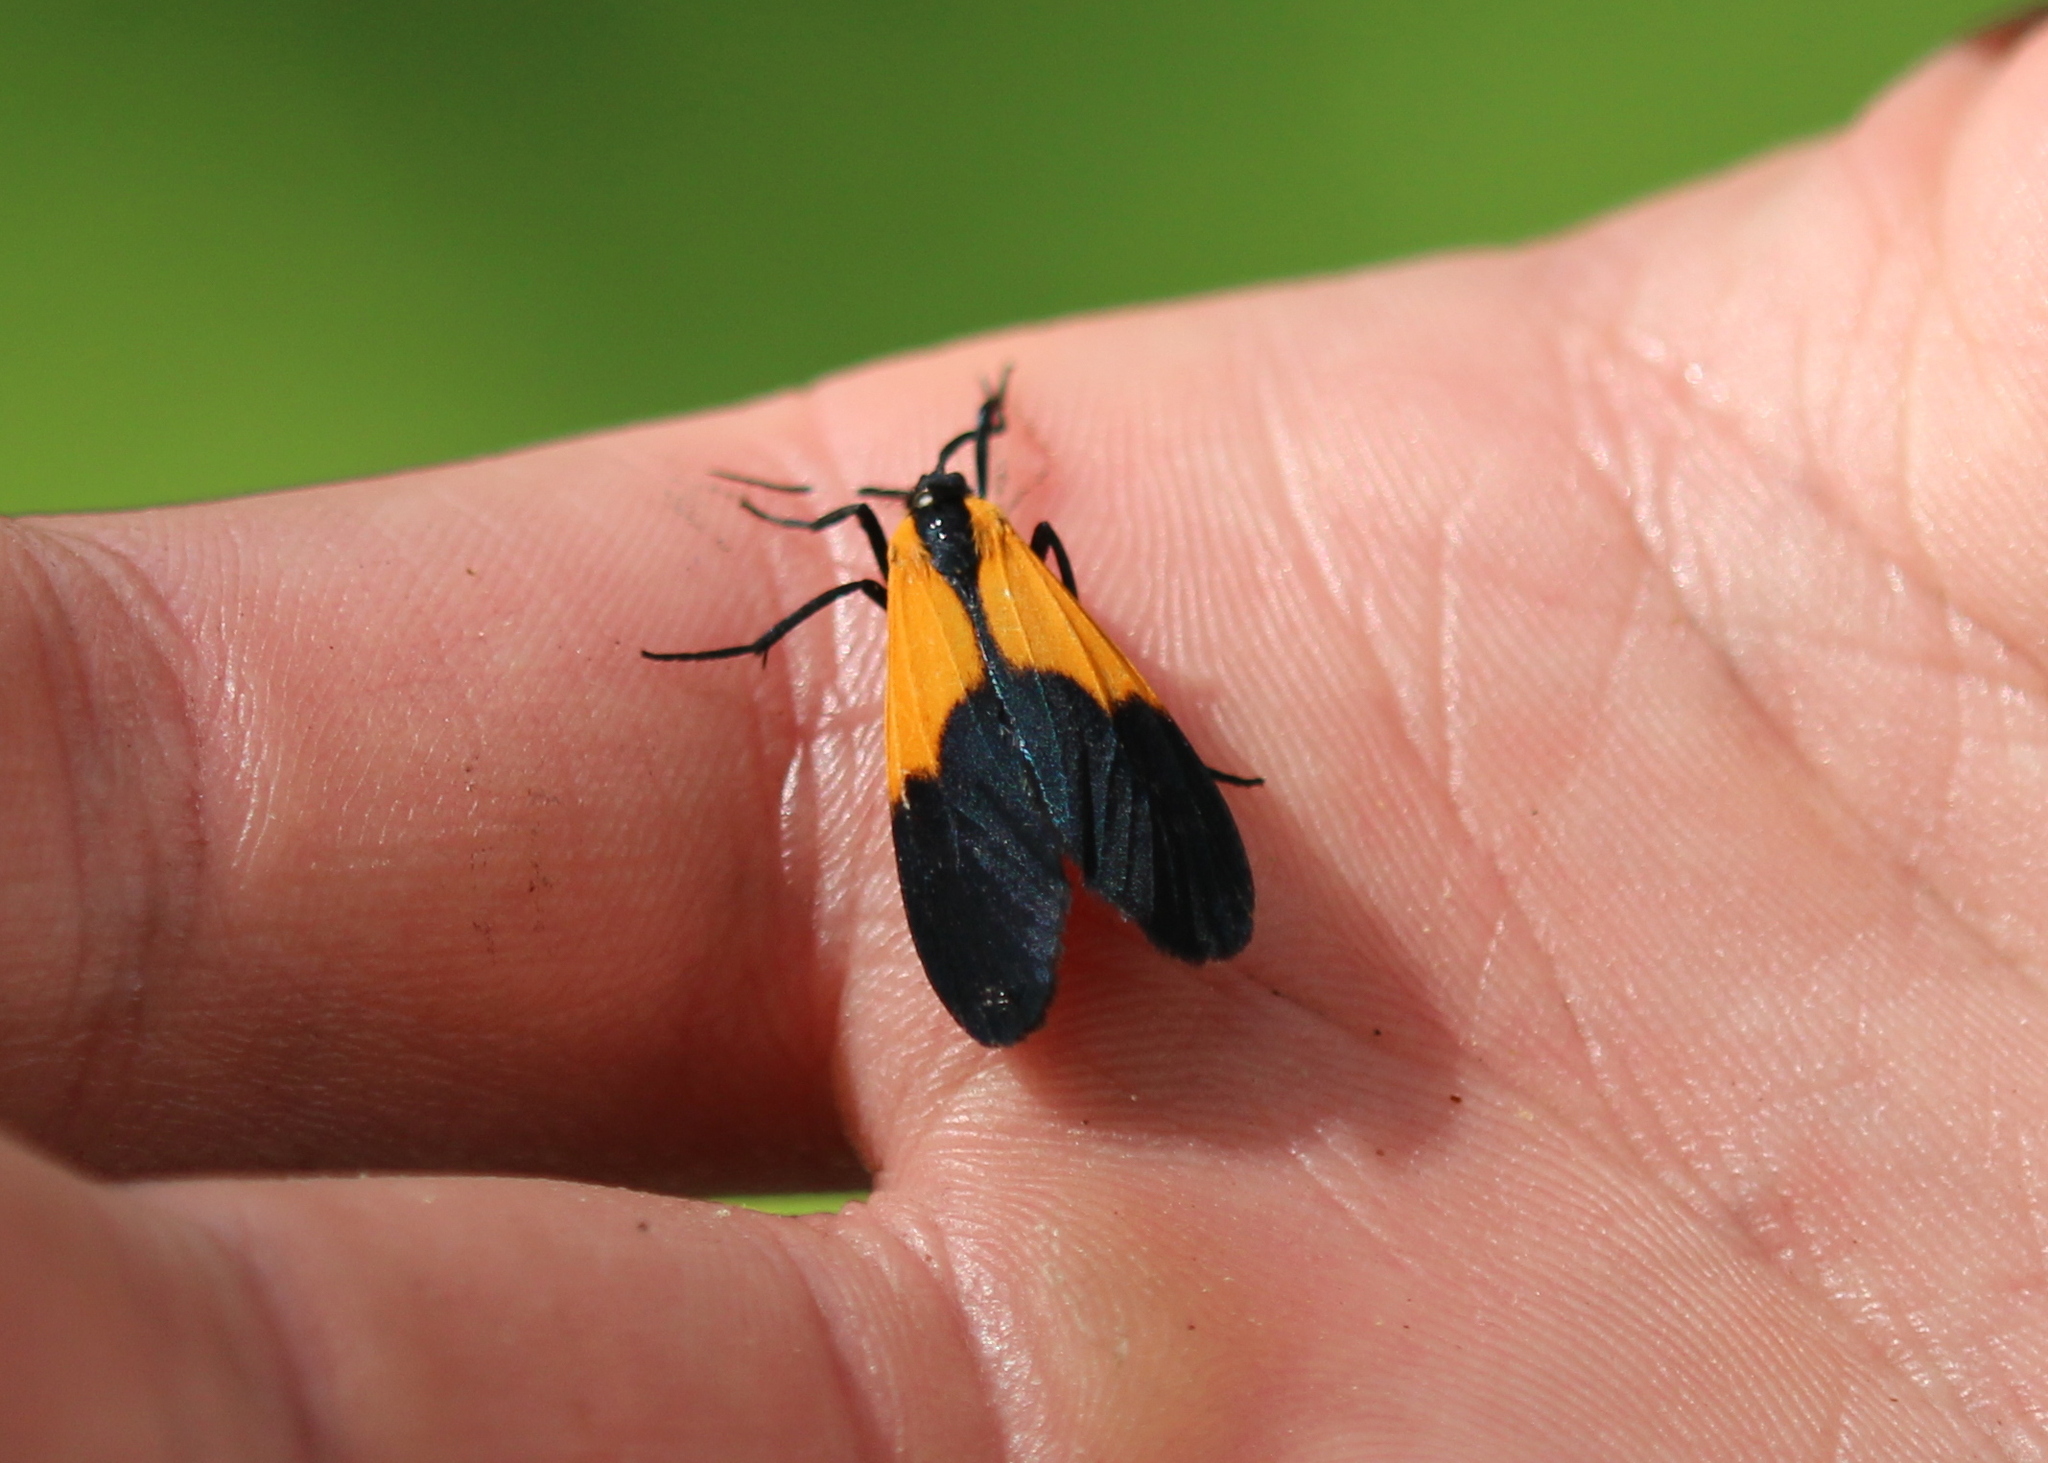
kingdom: Animalia
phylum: Arthropoda
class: Insecta
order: Lepidoptera
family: Erebidae
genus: Lycomorpha
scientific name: Lycomorpha pholus
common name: Black-and-yellow lichen moth
